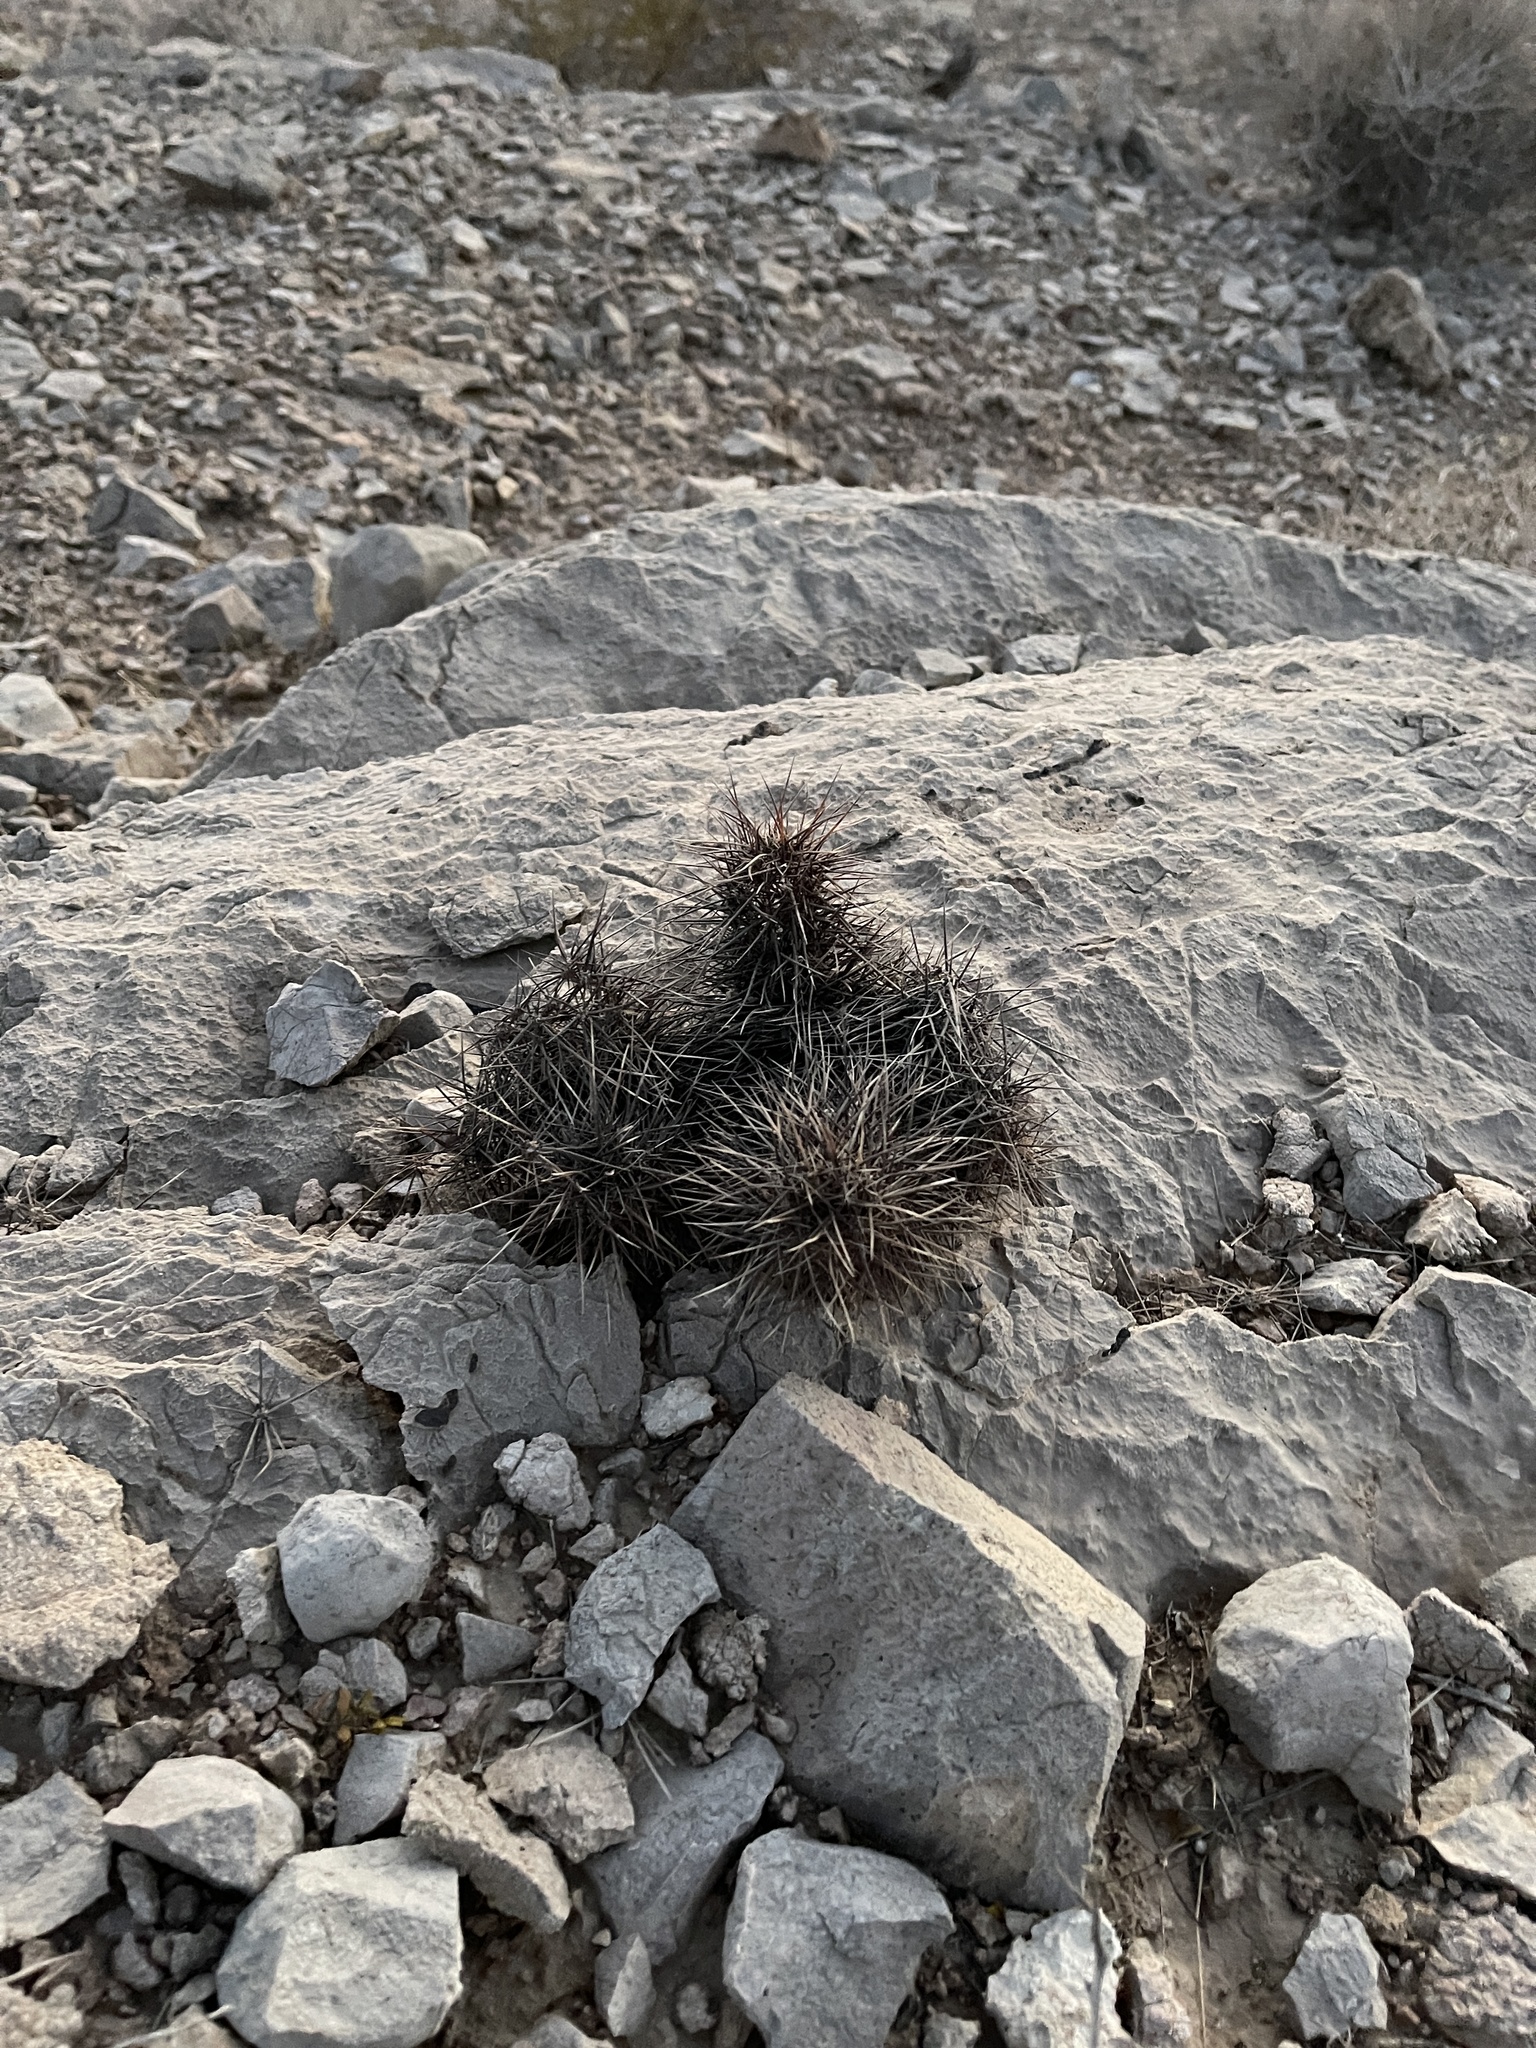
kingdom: Plantae
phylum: Tracheophyta
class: Magnoliopsida
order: Caryophyllales
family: Cactaceae
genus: Echinocereus
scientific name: Echinocereus engelmannii
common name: Engelmann's hedgehog cactus
